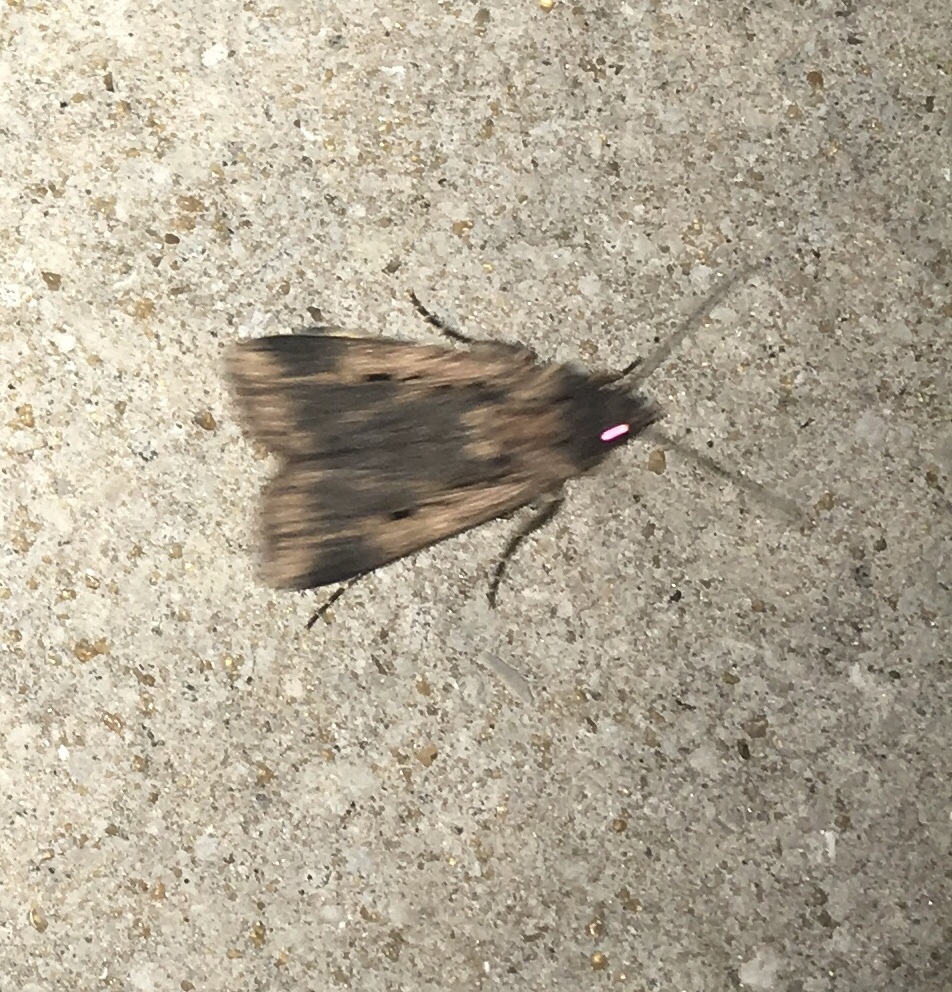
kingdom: Animalia
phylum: Arthropoda
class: Insecta
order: Lepidoptera
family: Noctuidae
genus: Feltia
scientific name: Feltia subterranea
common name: Granulate cutworm
